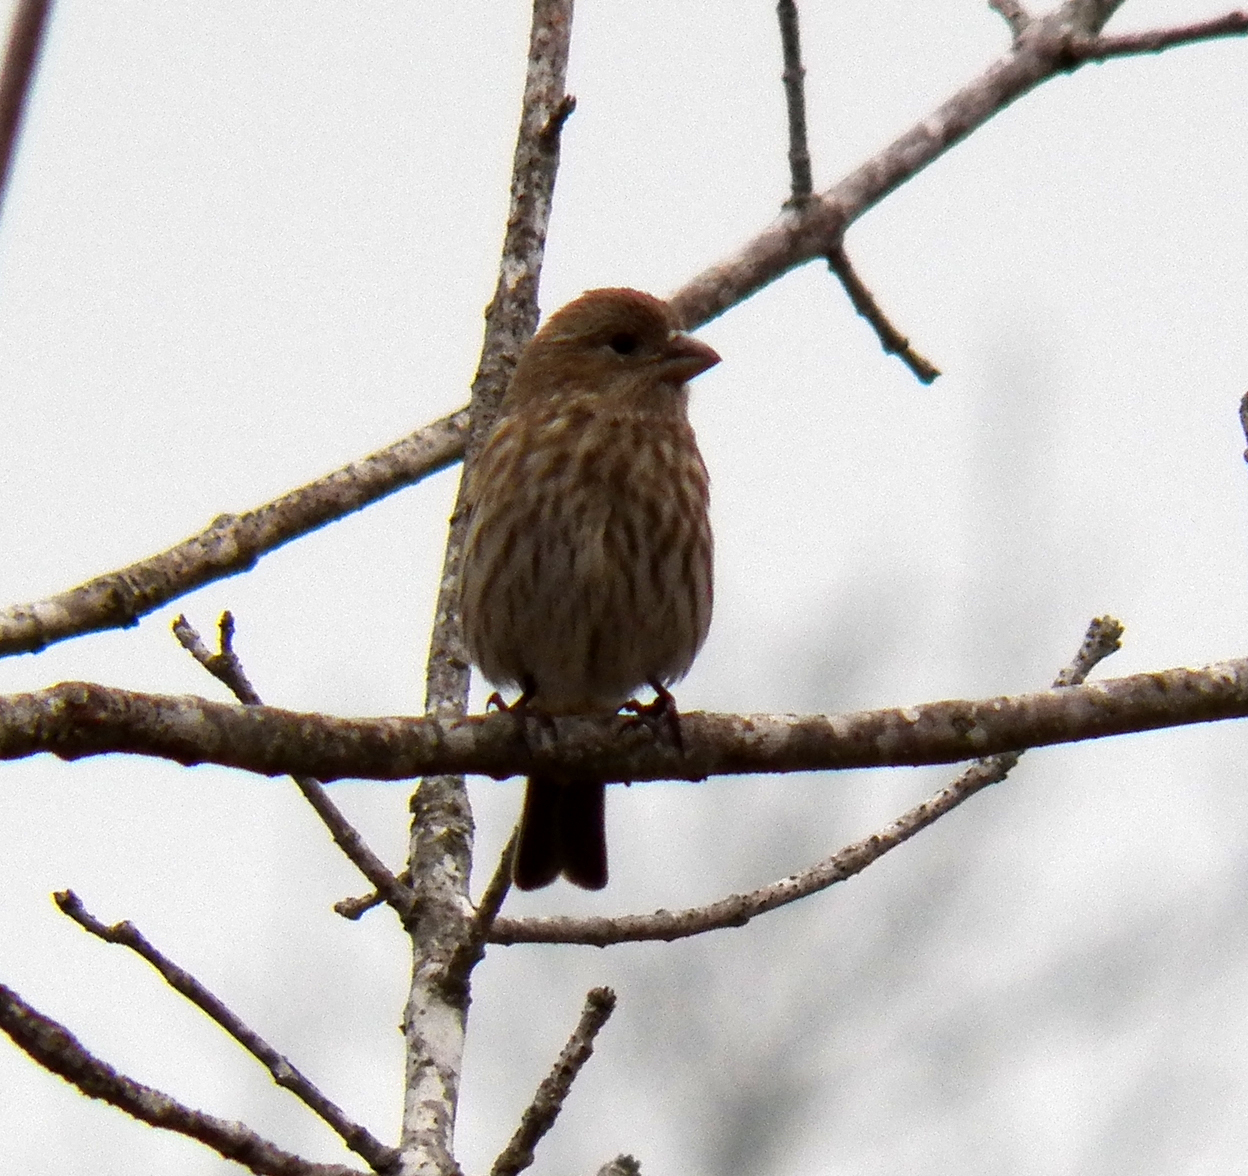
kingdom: Animalia
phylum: Chordata
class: Aves
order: Passeriformes
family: Fringillidae
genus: Haemorhous
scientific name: Haemorhous mexicanus
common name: House finch
